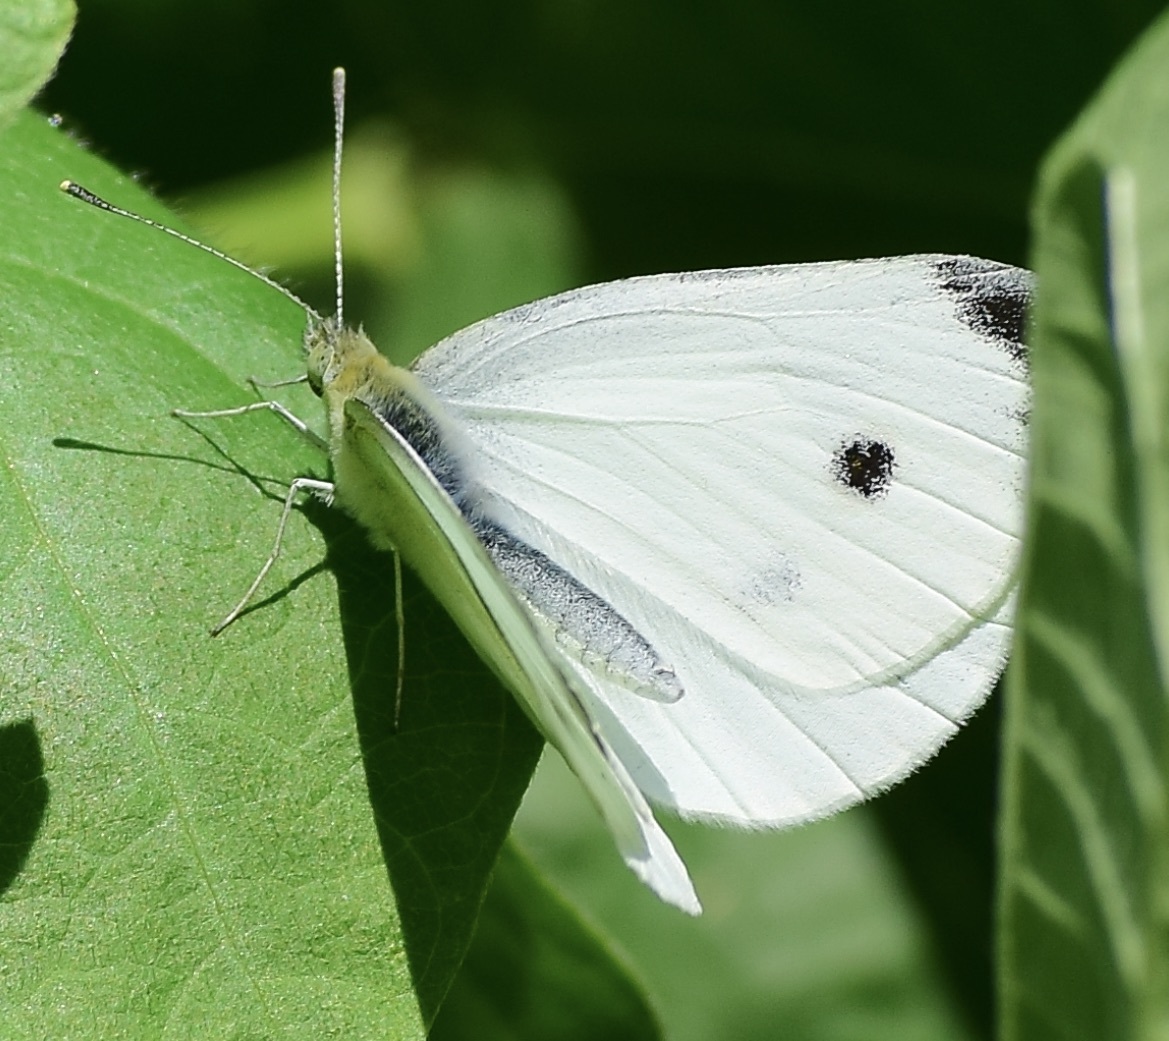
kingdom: Animalia
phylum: Arthropoda
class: Insecta
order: Lepidoptera
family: Pieridae
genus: Pieris
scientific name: Pieris rapae
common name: Small white
